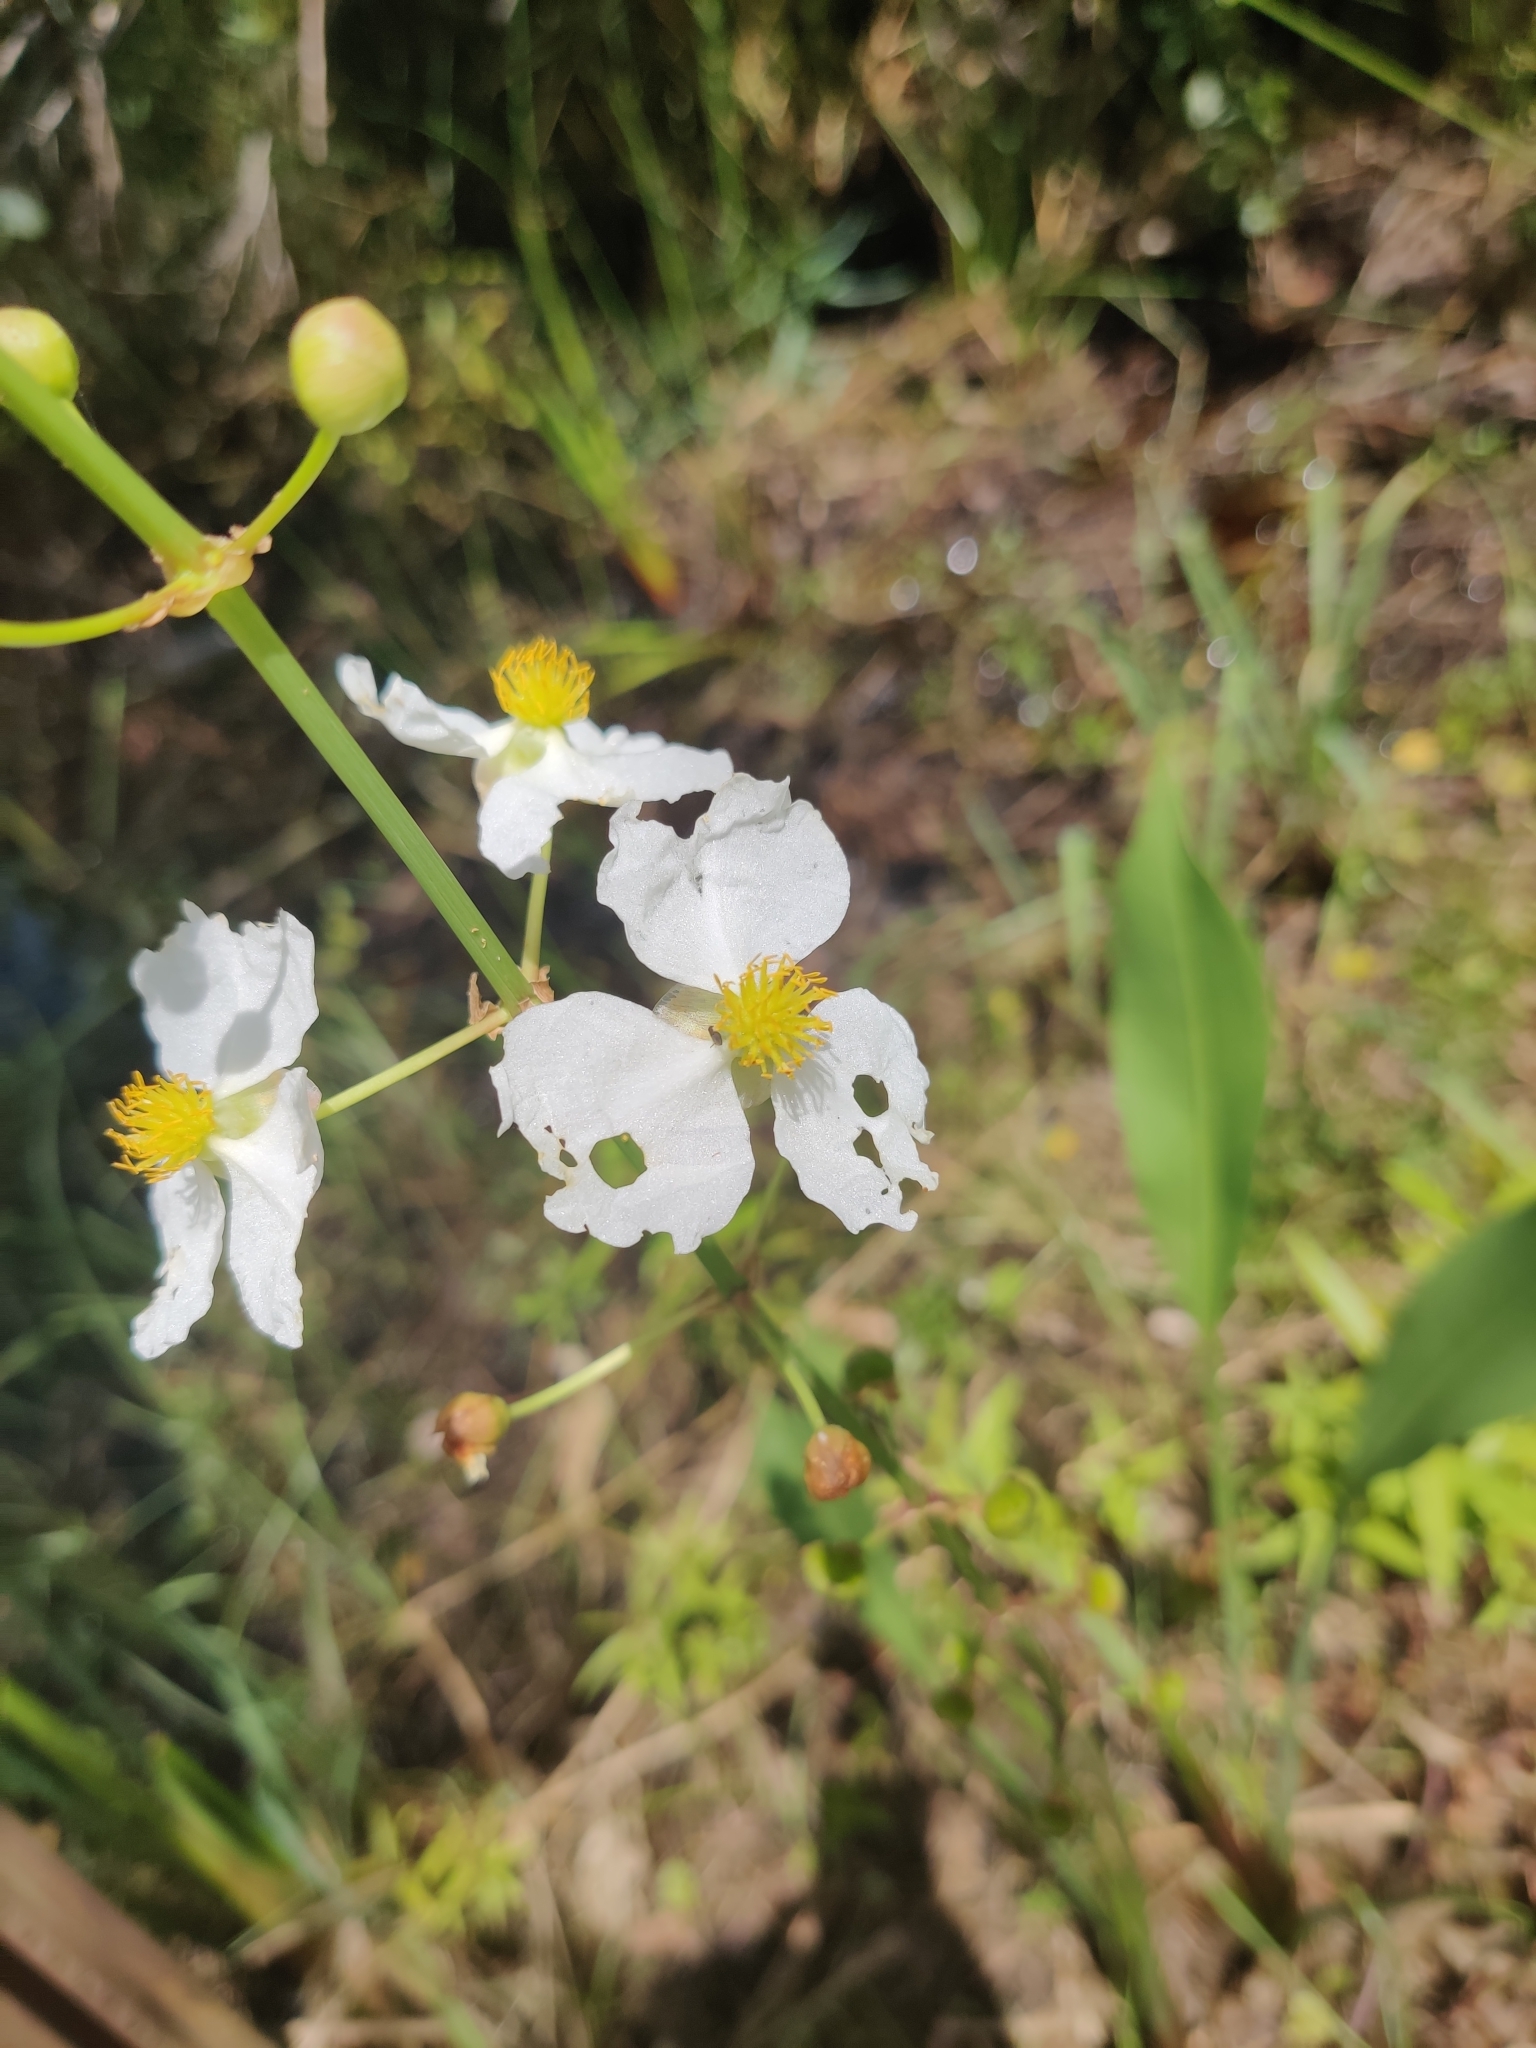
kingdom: Plantae
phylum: Tracheophyta
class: Liliopsida
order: Alismatales
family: Alismataceae
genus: Sagittaria
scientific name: Sagittaria lancifolia
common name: Lance-leaf arrowhead
